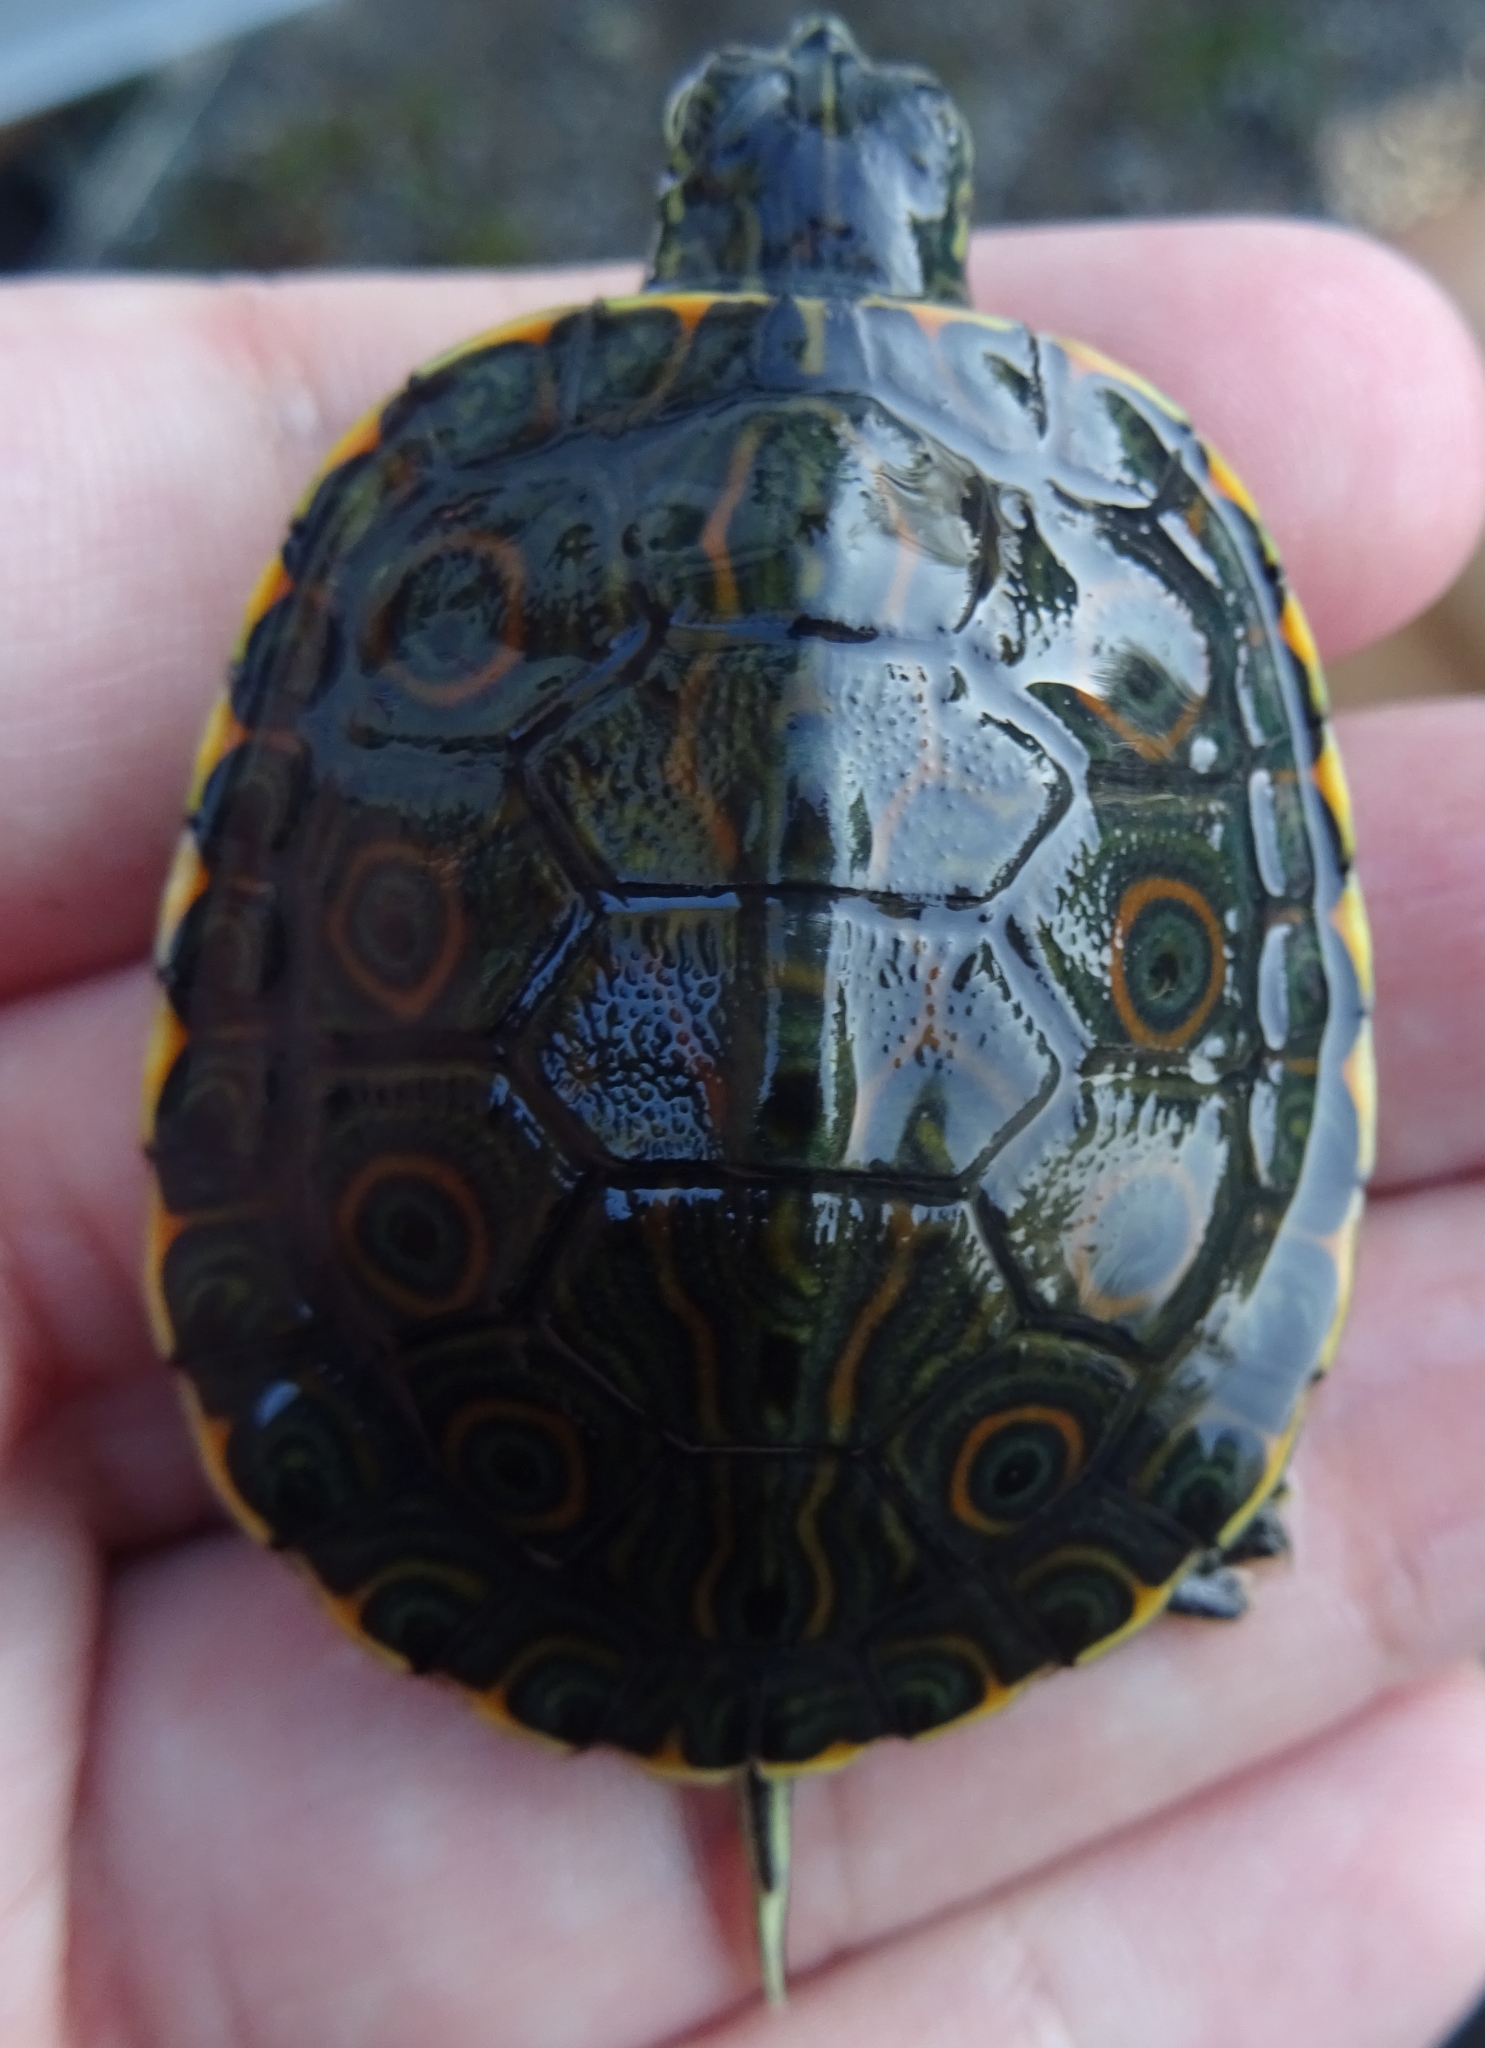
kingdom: Animalia
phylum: Chordata
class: Testudines
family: Emydidae
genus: Trachemys
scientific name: Trachemys venusta
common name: Mesoamerican slider
